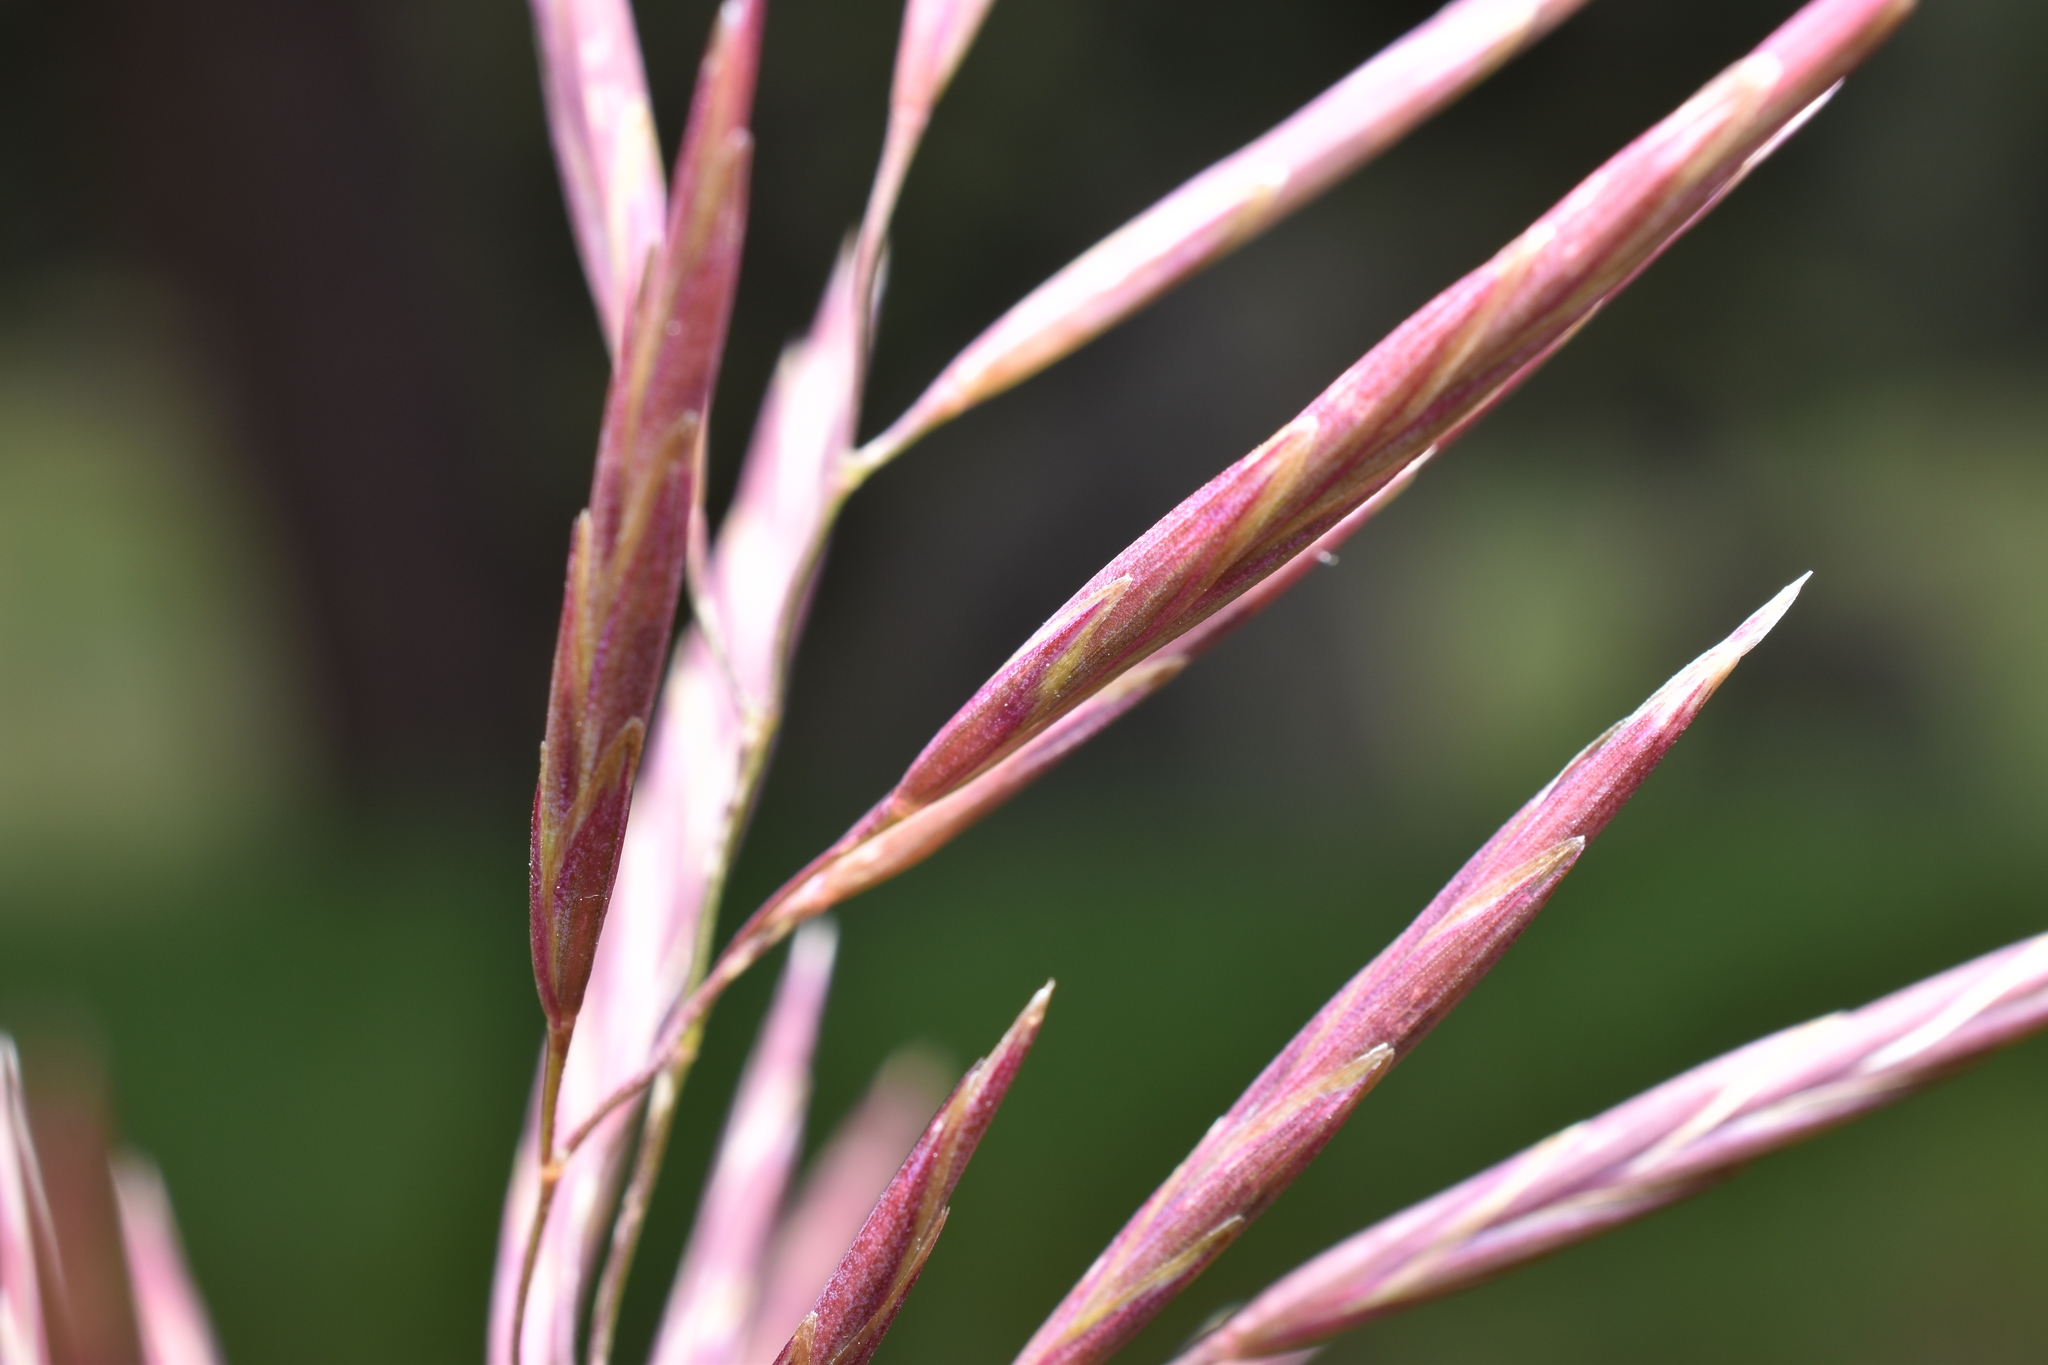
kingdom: Plantae
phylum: Tracheophyta
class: Liliopsida
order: Poales
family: Poaceae
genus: Bromus
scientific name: Bromus inermis
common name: Smooth brome
